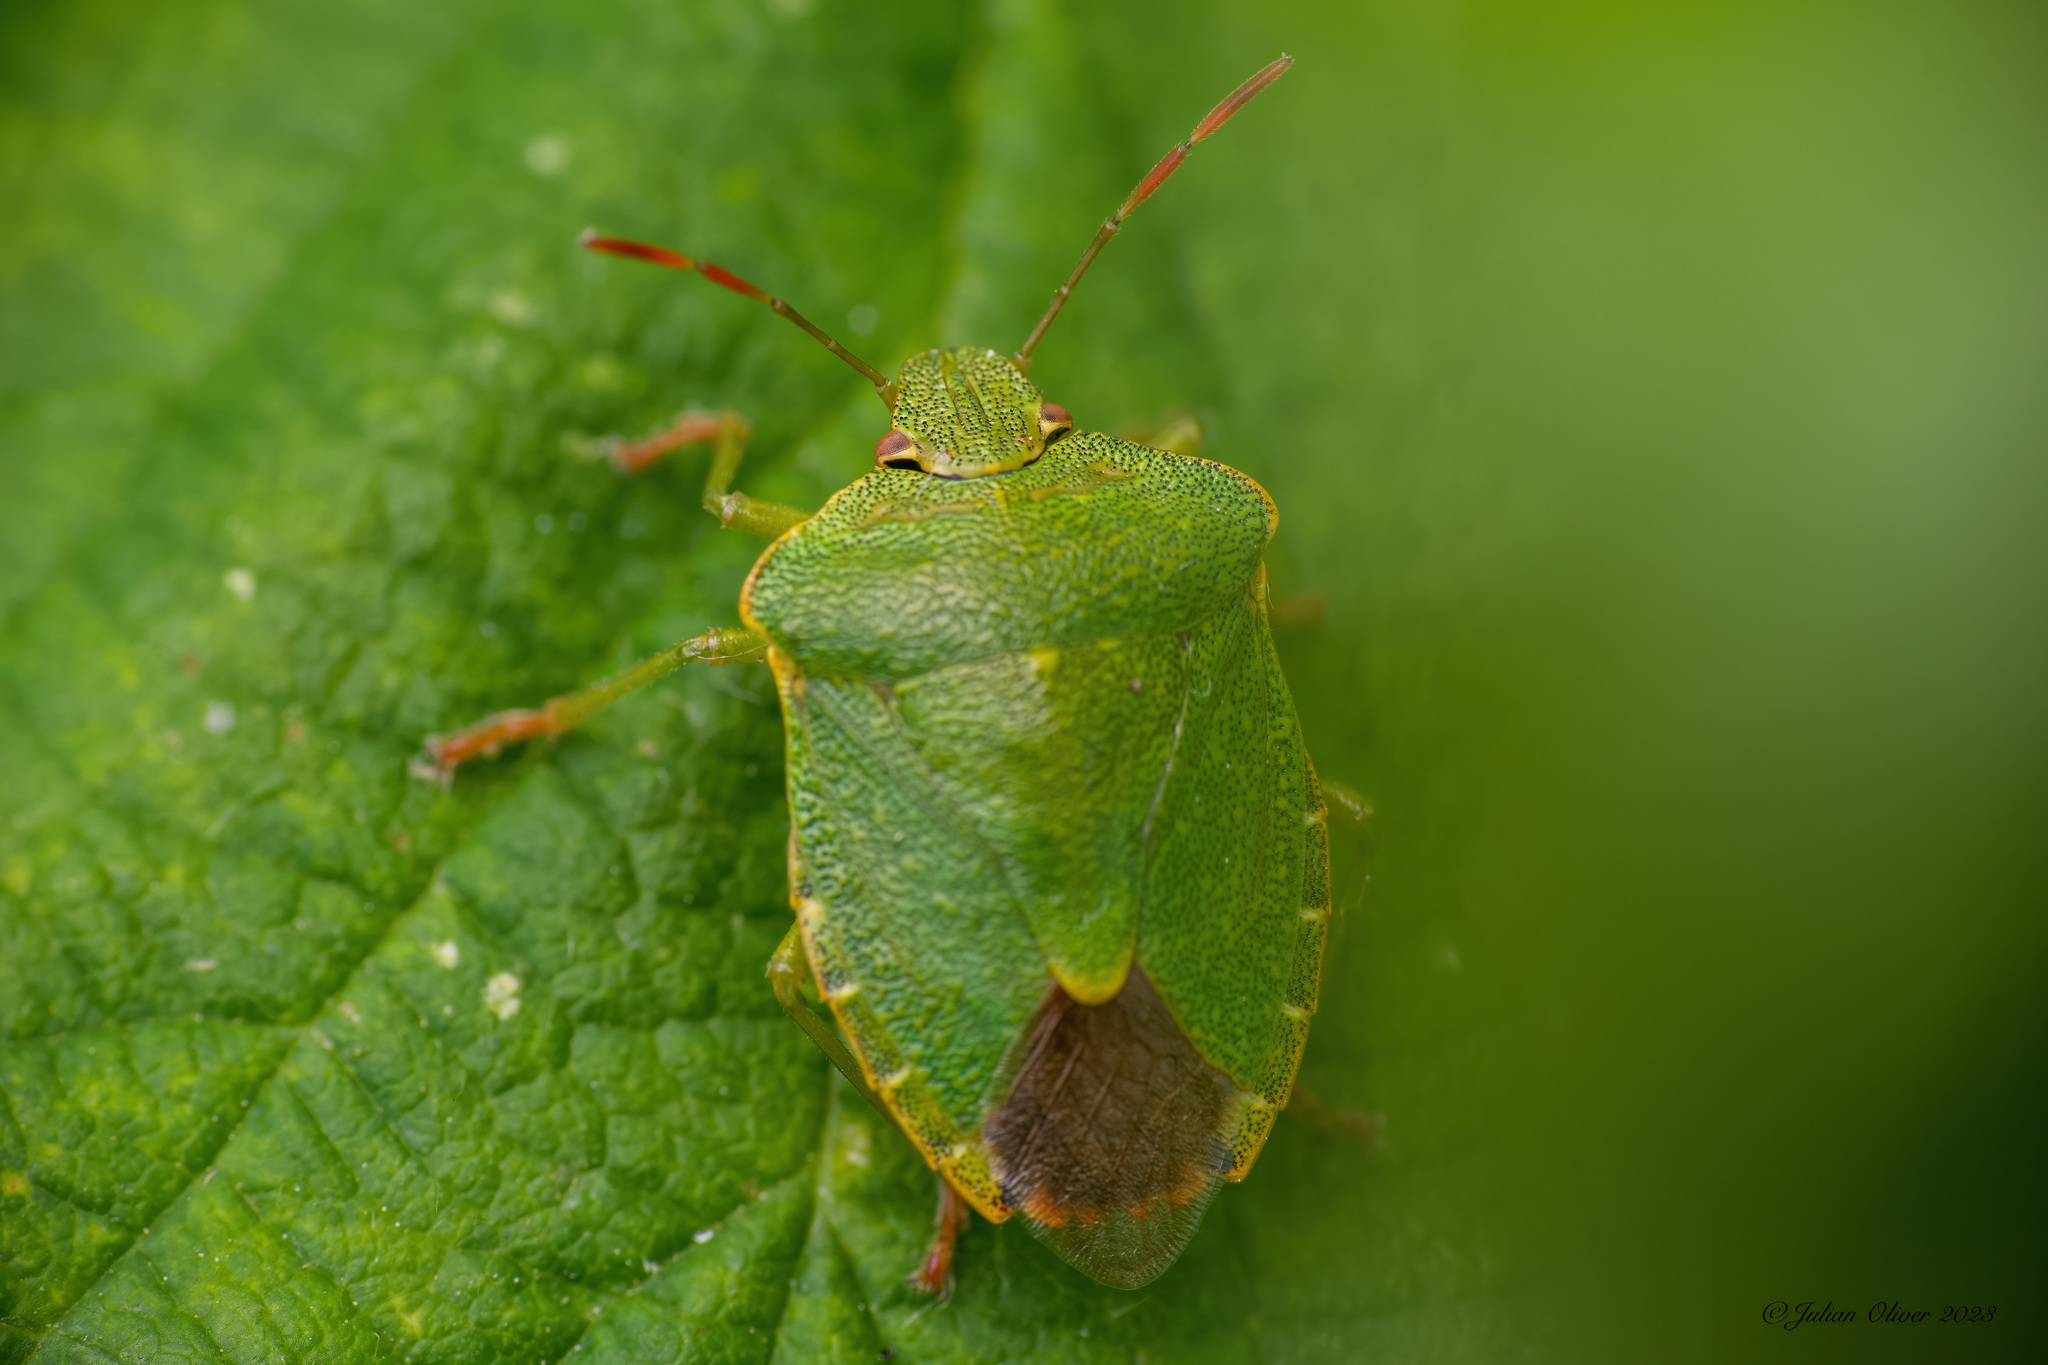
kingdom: Animalia
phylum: Arthropoda
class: Insecta
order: Hemiptera
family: Pentatomidae
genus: Palomena
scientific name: Palomena prasina
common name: Green shieldbug
